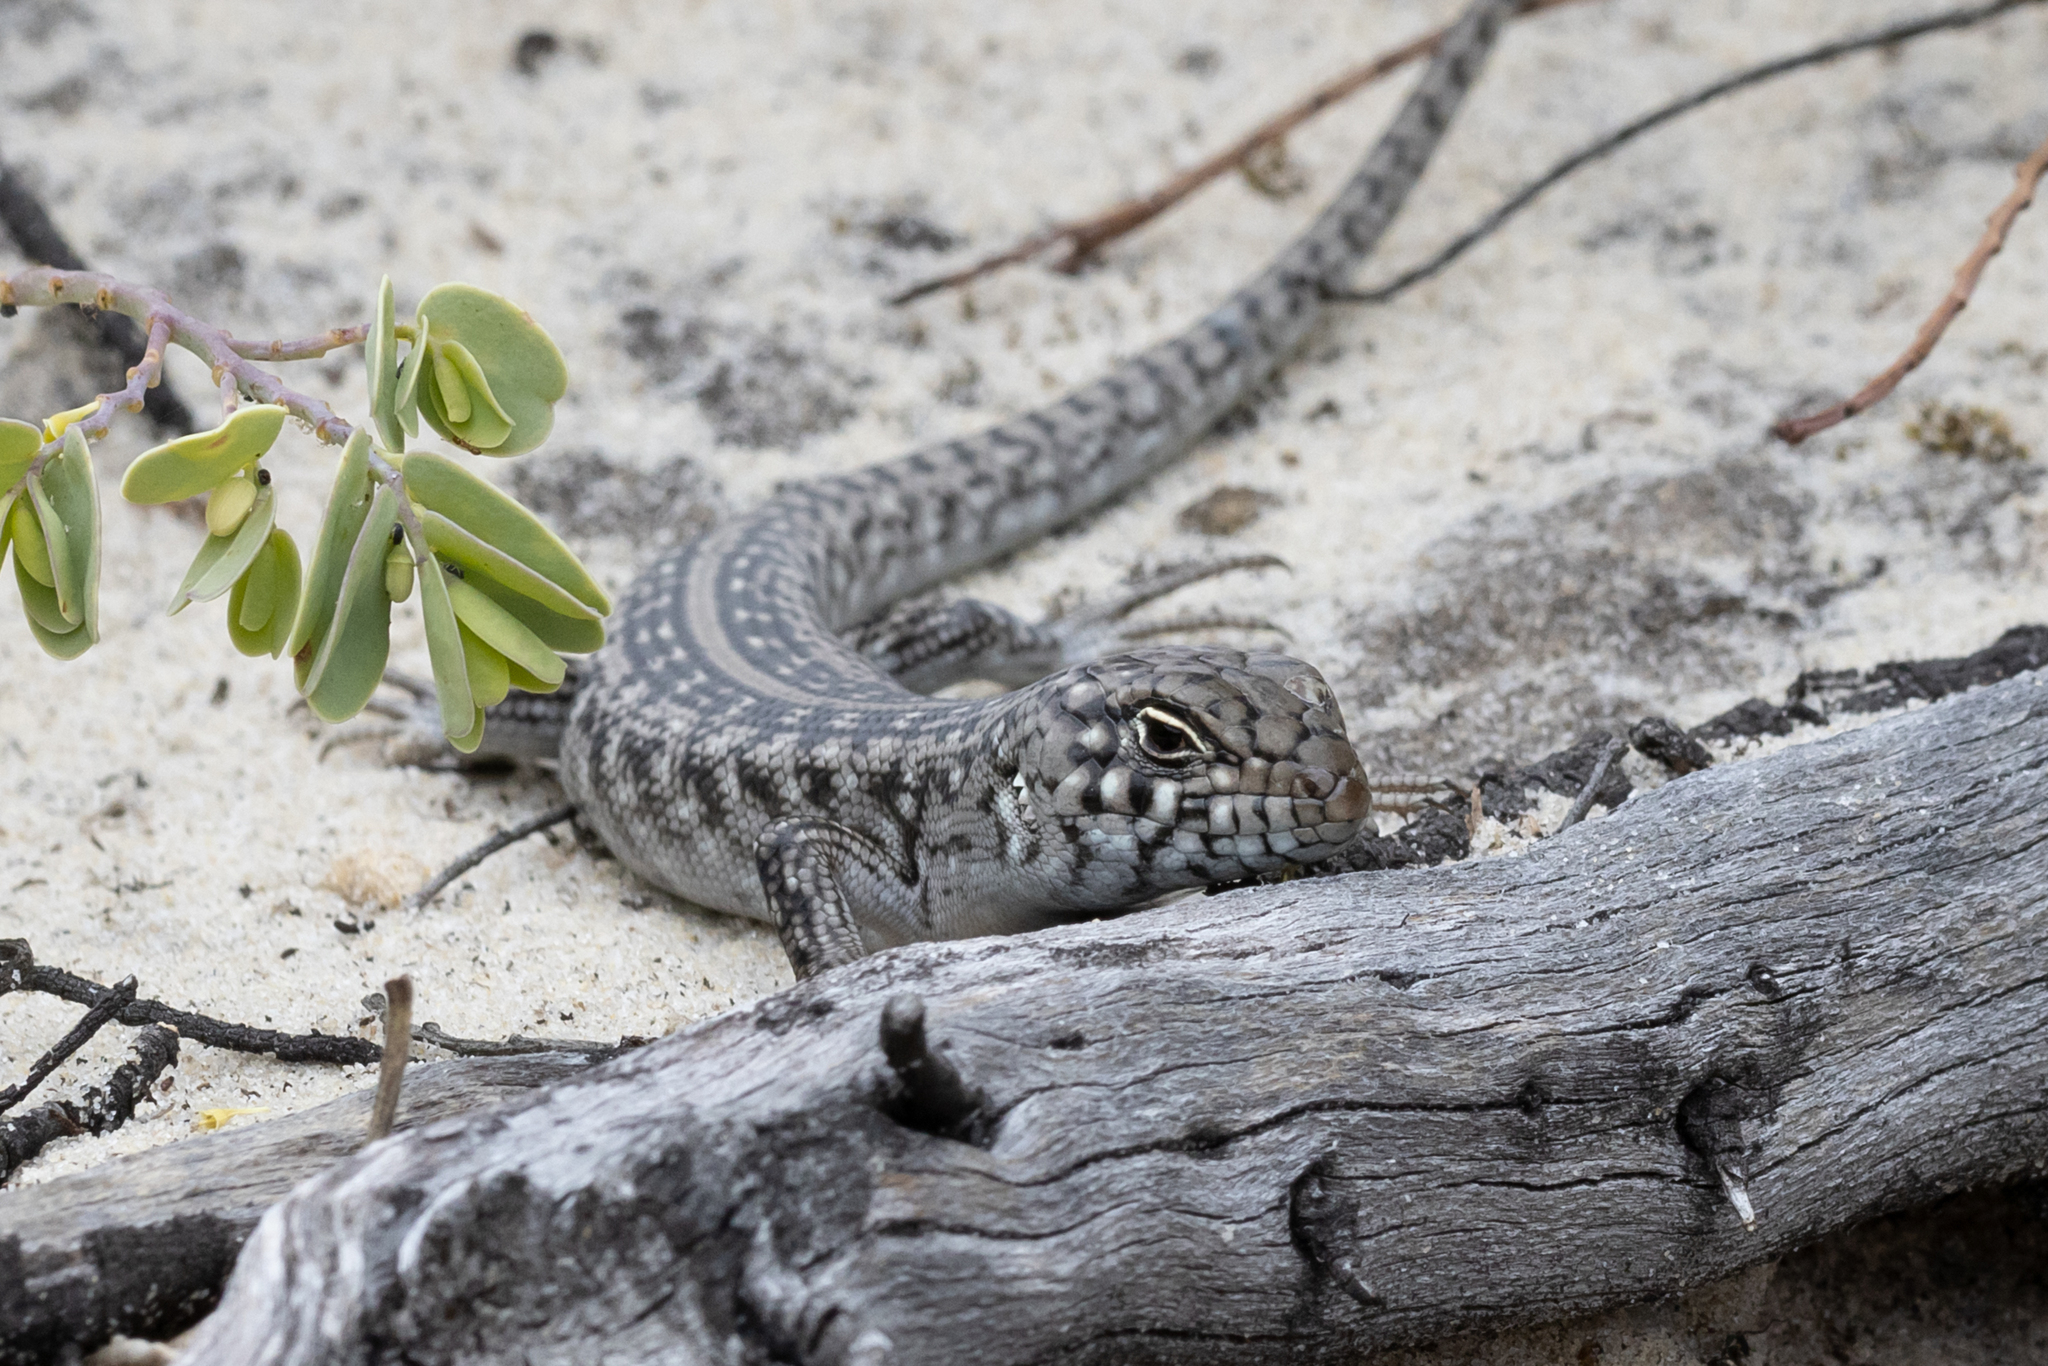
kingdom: Animalia
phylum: Chordata
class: Squamata
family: Scincidae
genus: Liopholis
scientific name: Liopholis multiscutata
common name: Bull skink
